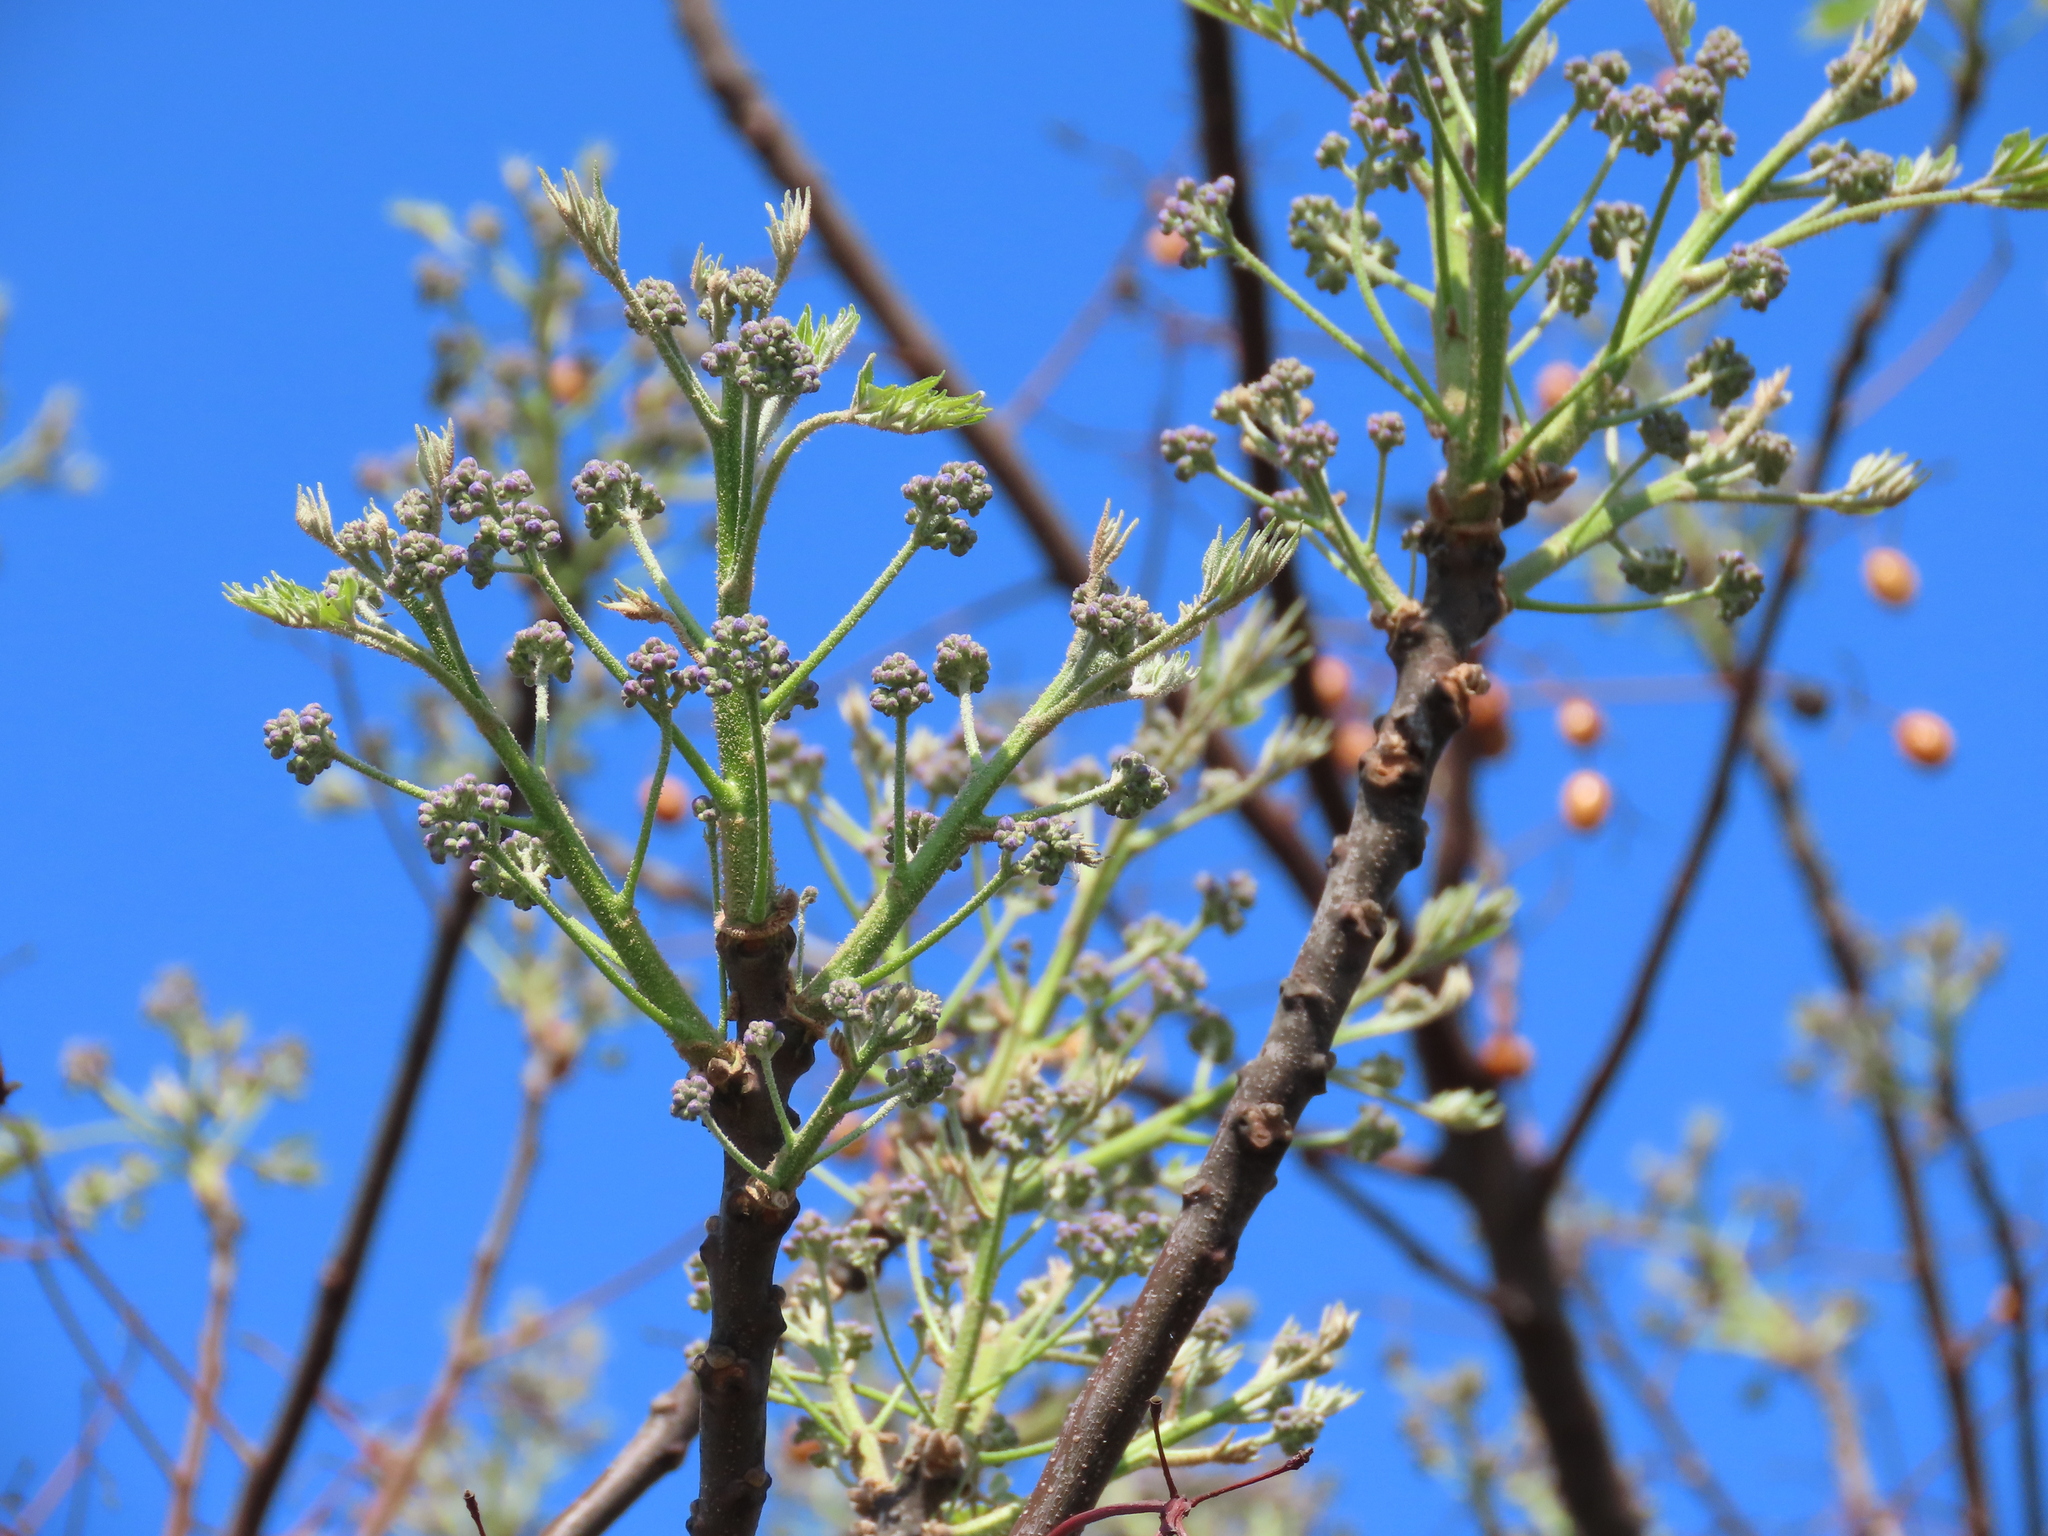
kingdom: Plantae
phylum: Tracheophyta
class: Magnoliopsida
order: Sapindales
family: Meliaceae
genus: Melia
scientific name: Melia azedarach
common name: Chinaberrytree
